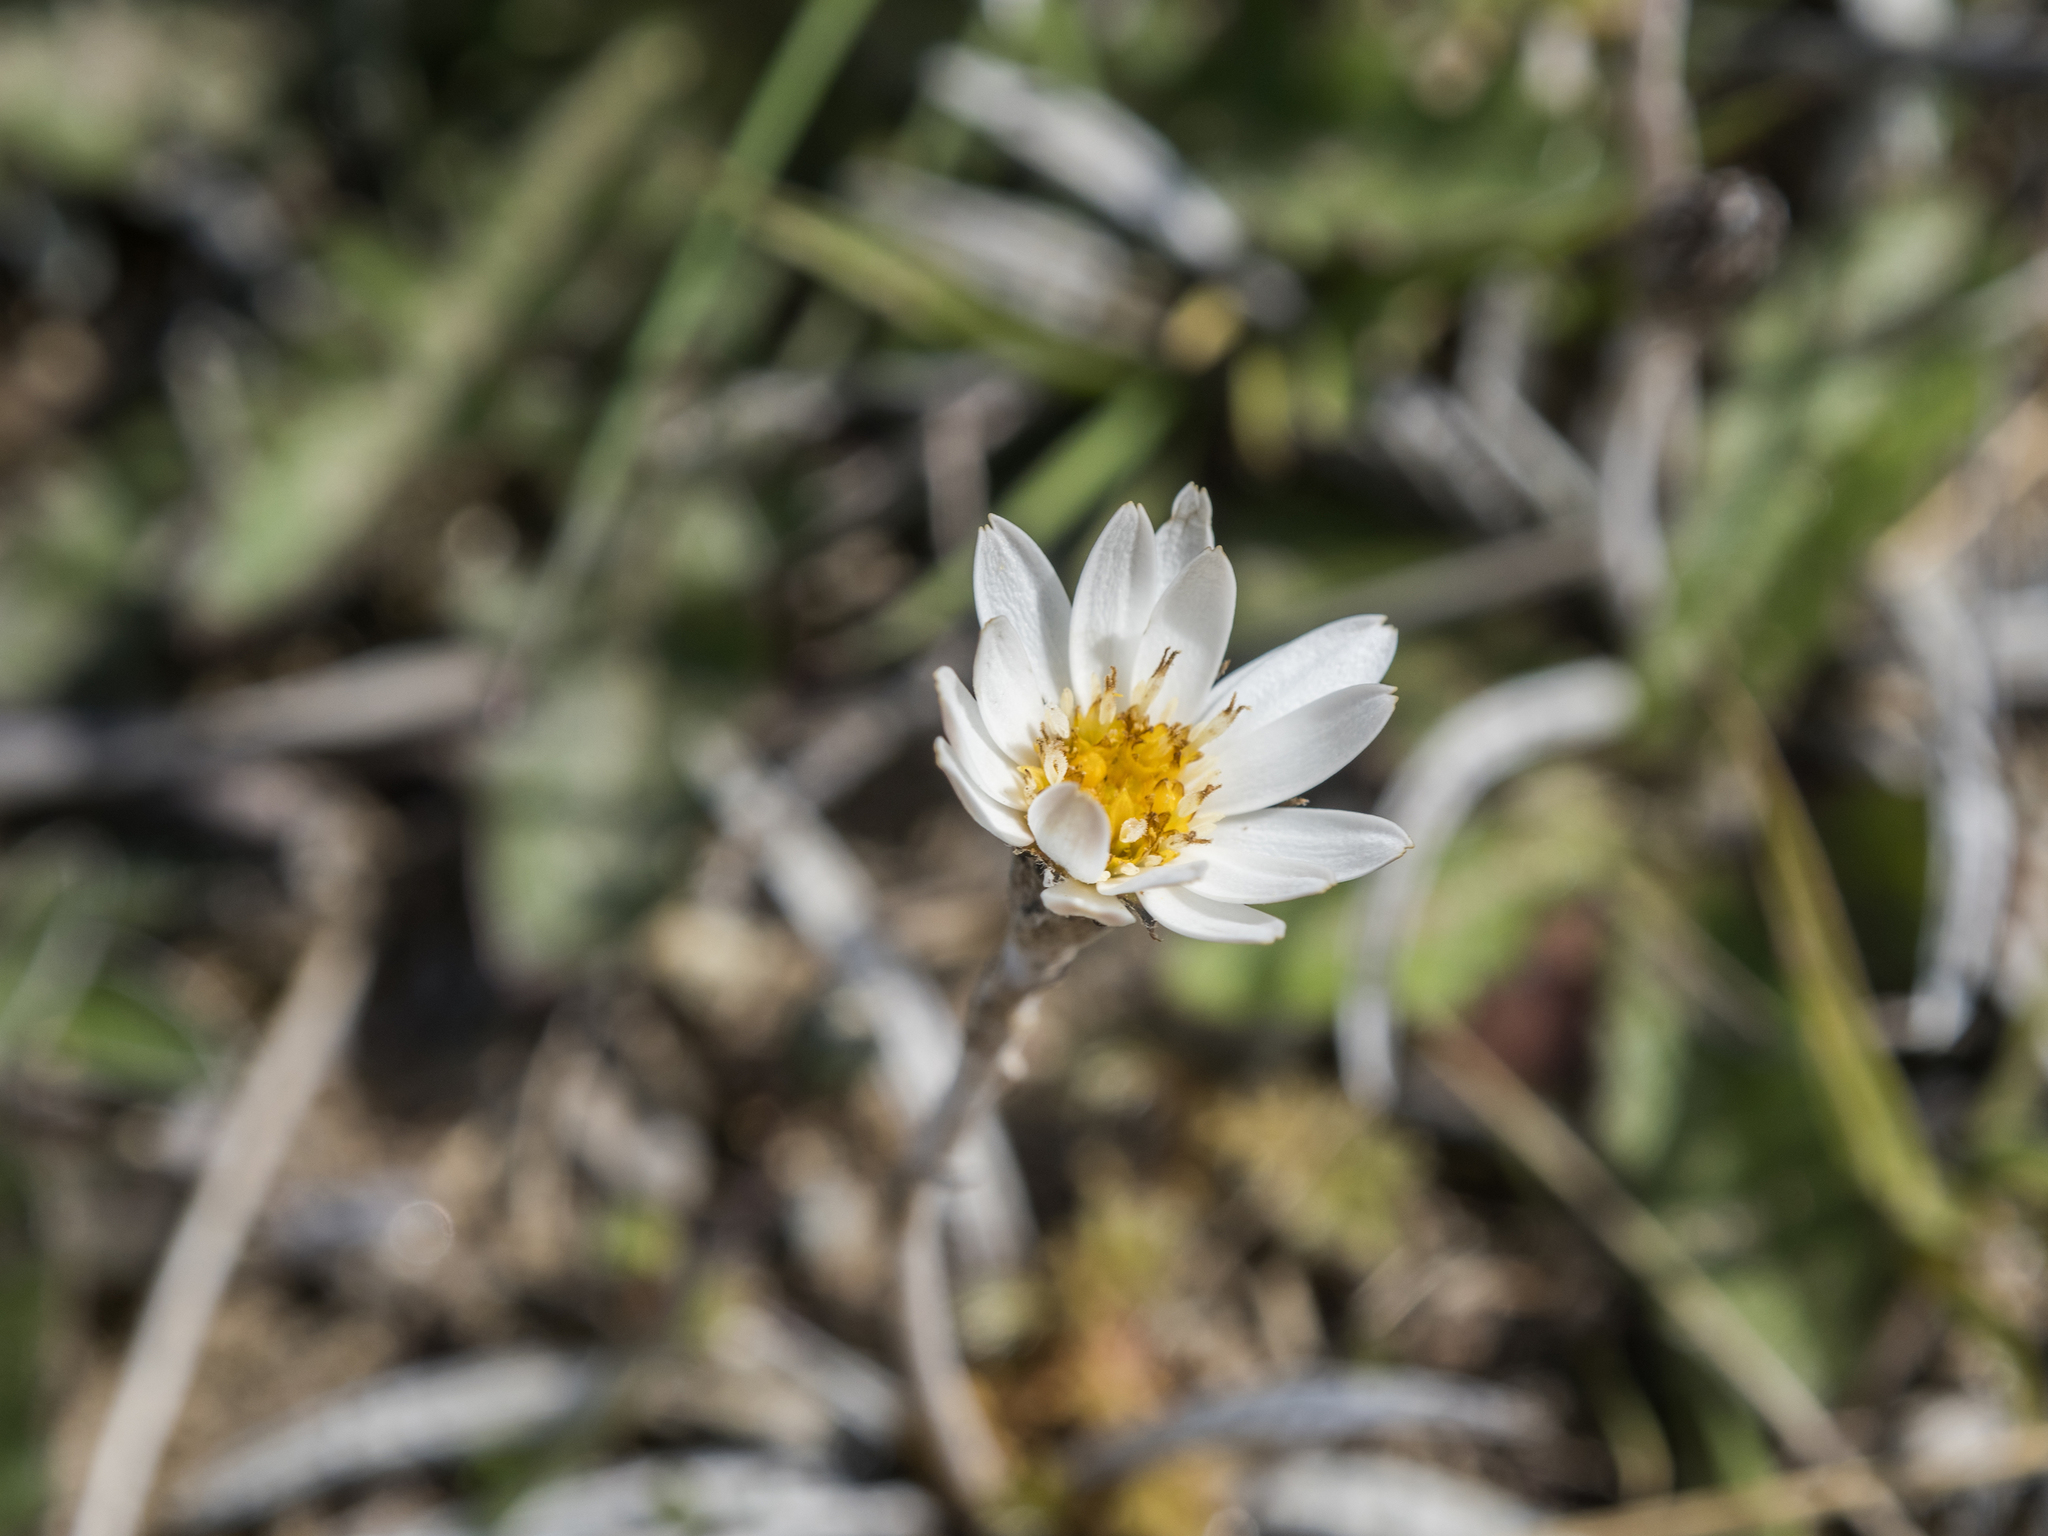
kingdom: Plantae
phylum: Tracheophyta
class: Magnoliopsida
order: Asterales
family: Asteraceae
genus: Celmisia
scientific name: Celmisia gracilenta
